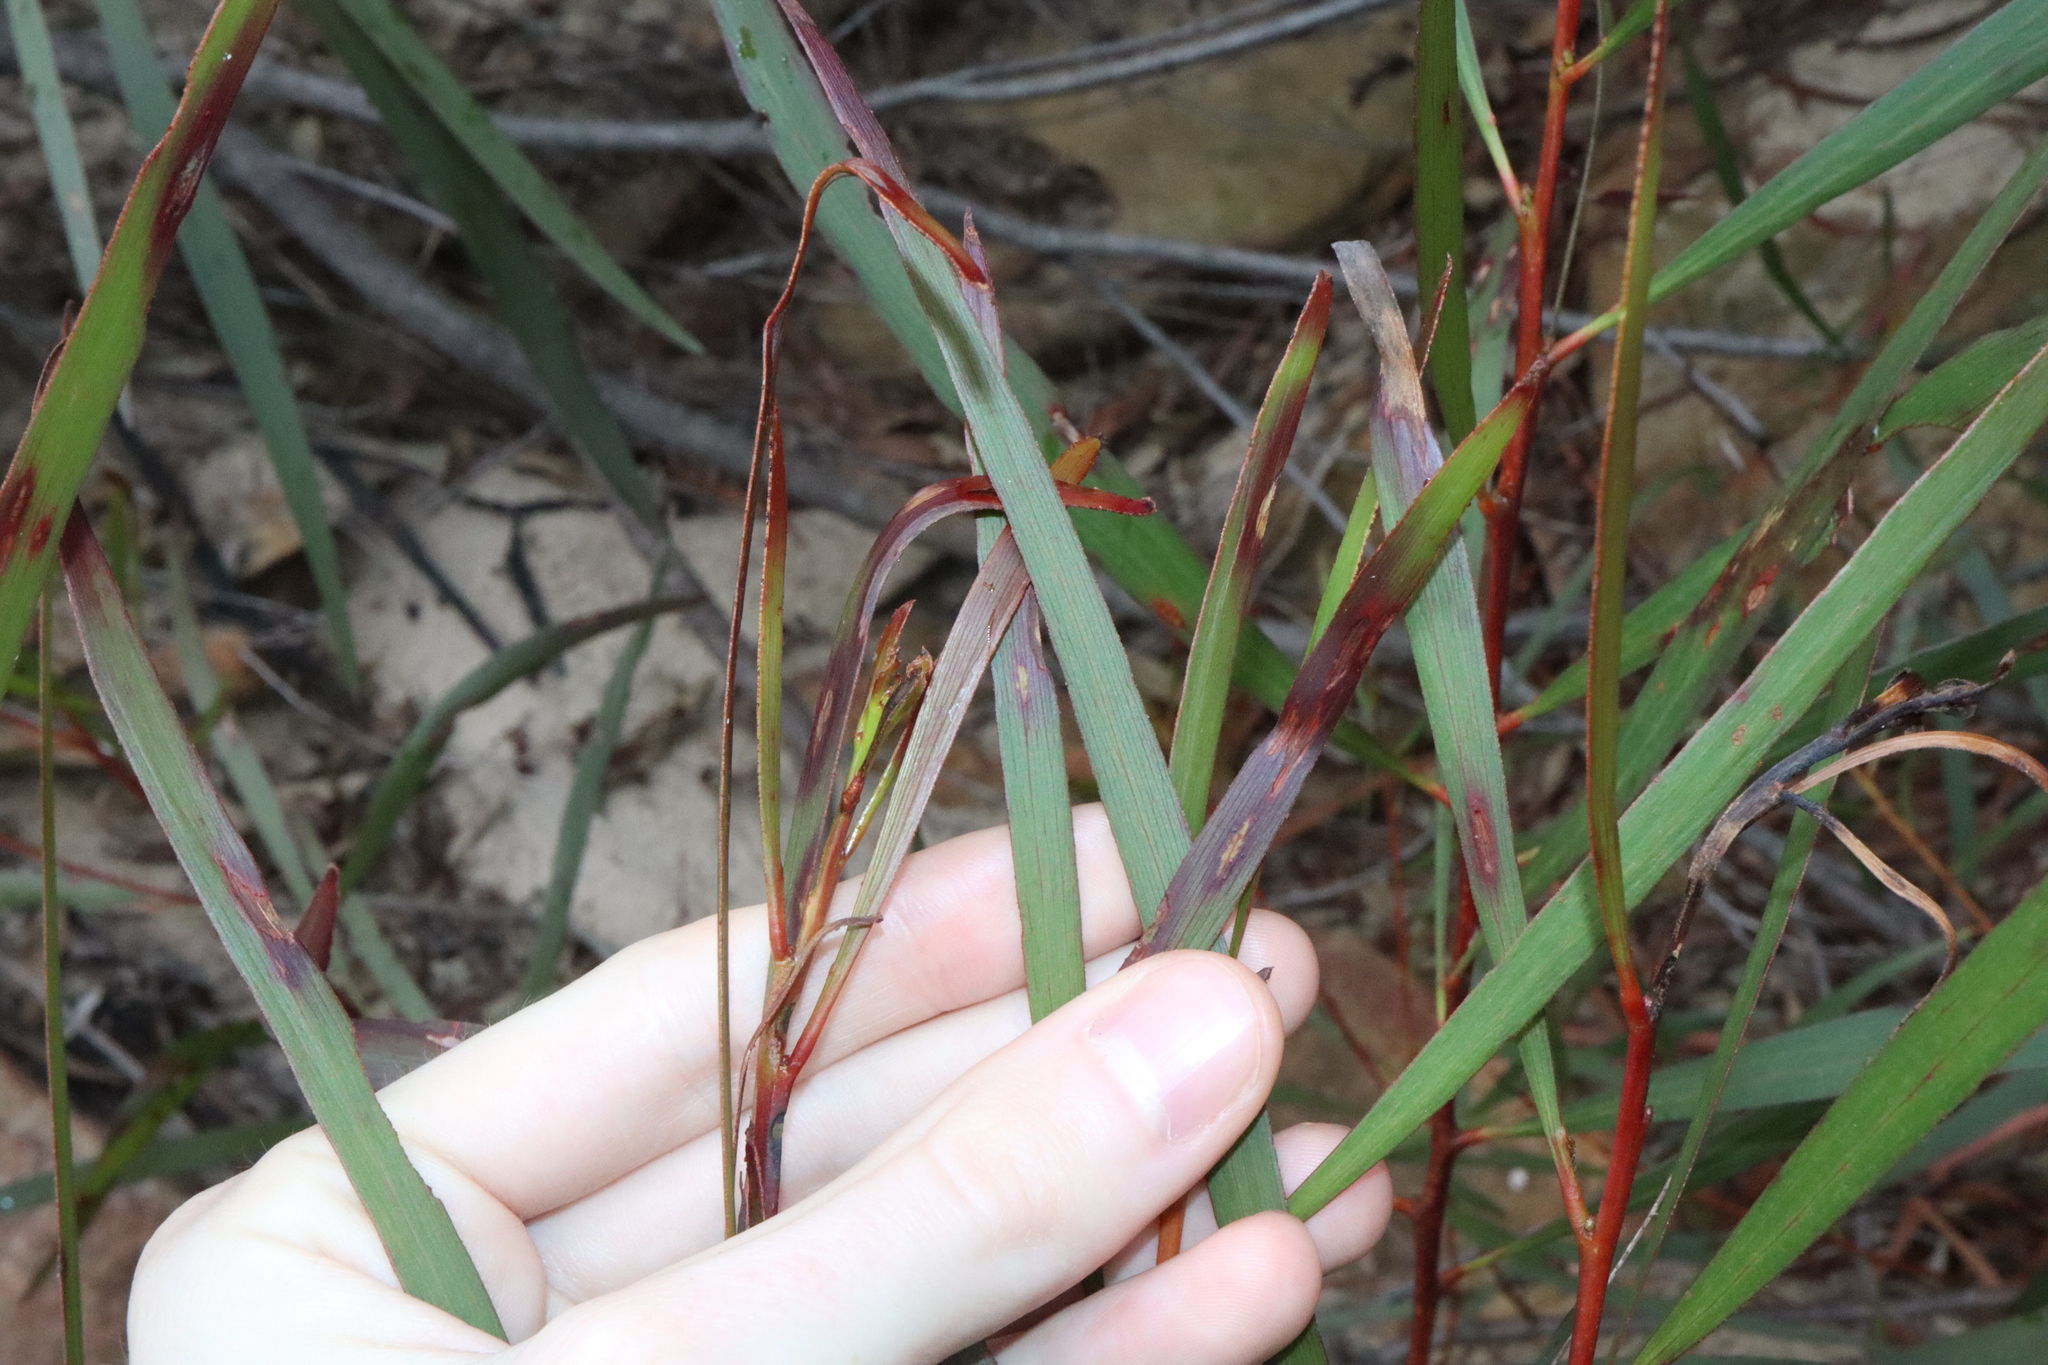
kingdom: Plantae
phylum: Tracheophyta
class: Magnoliopsida
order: Fabales
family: Fabaceae
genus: Acacia
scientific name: Acacia obtusifolia
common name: Stiff-leaf wattle
